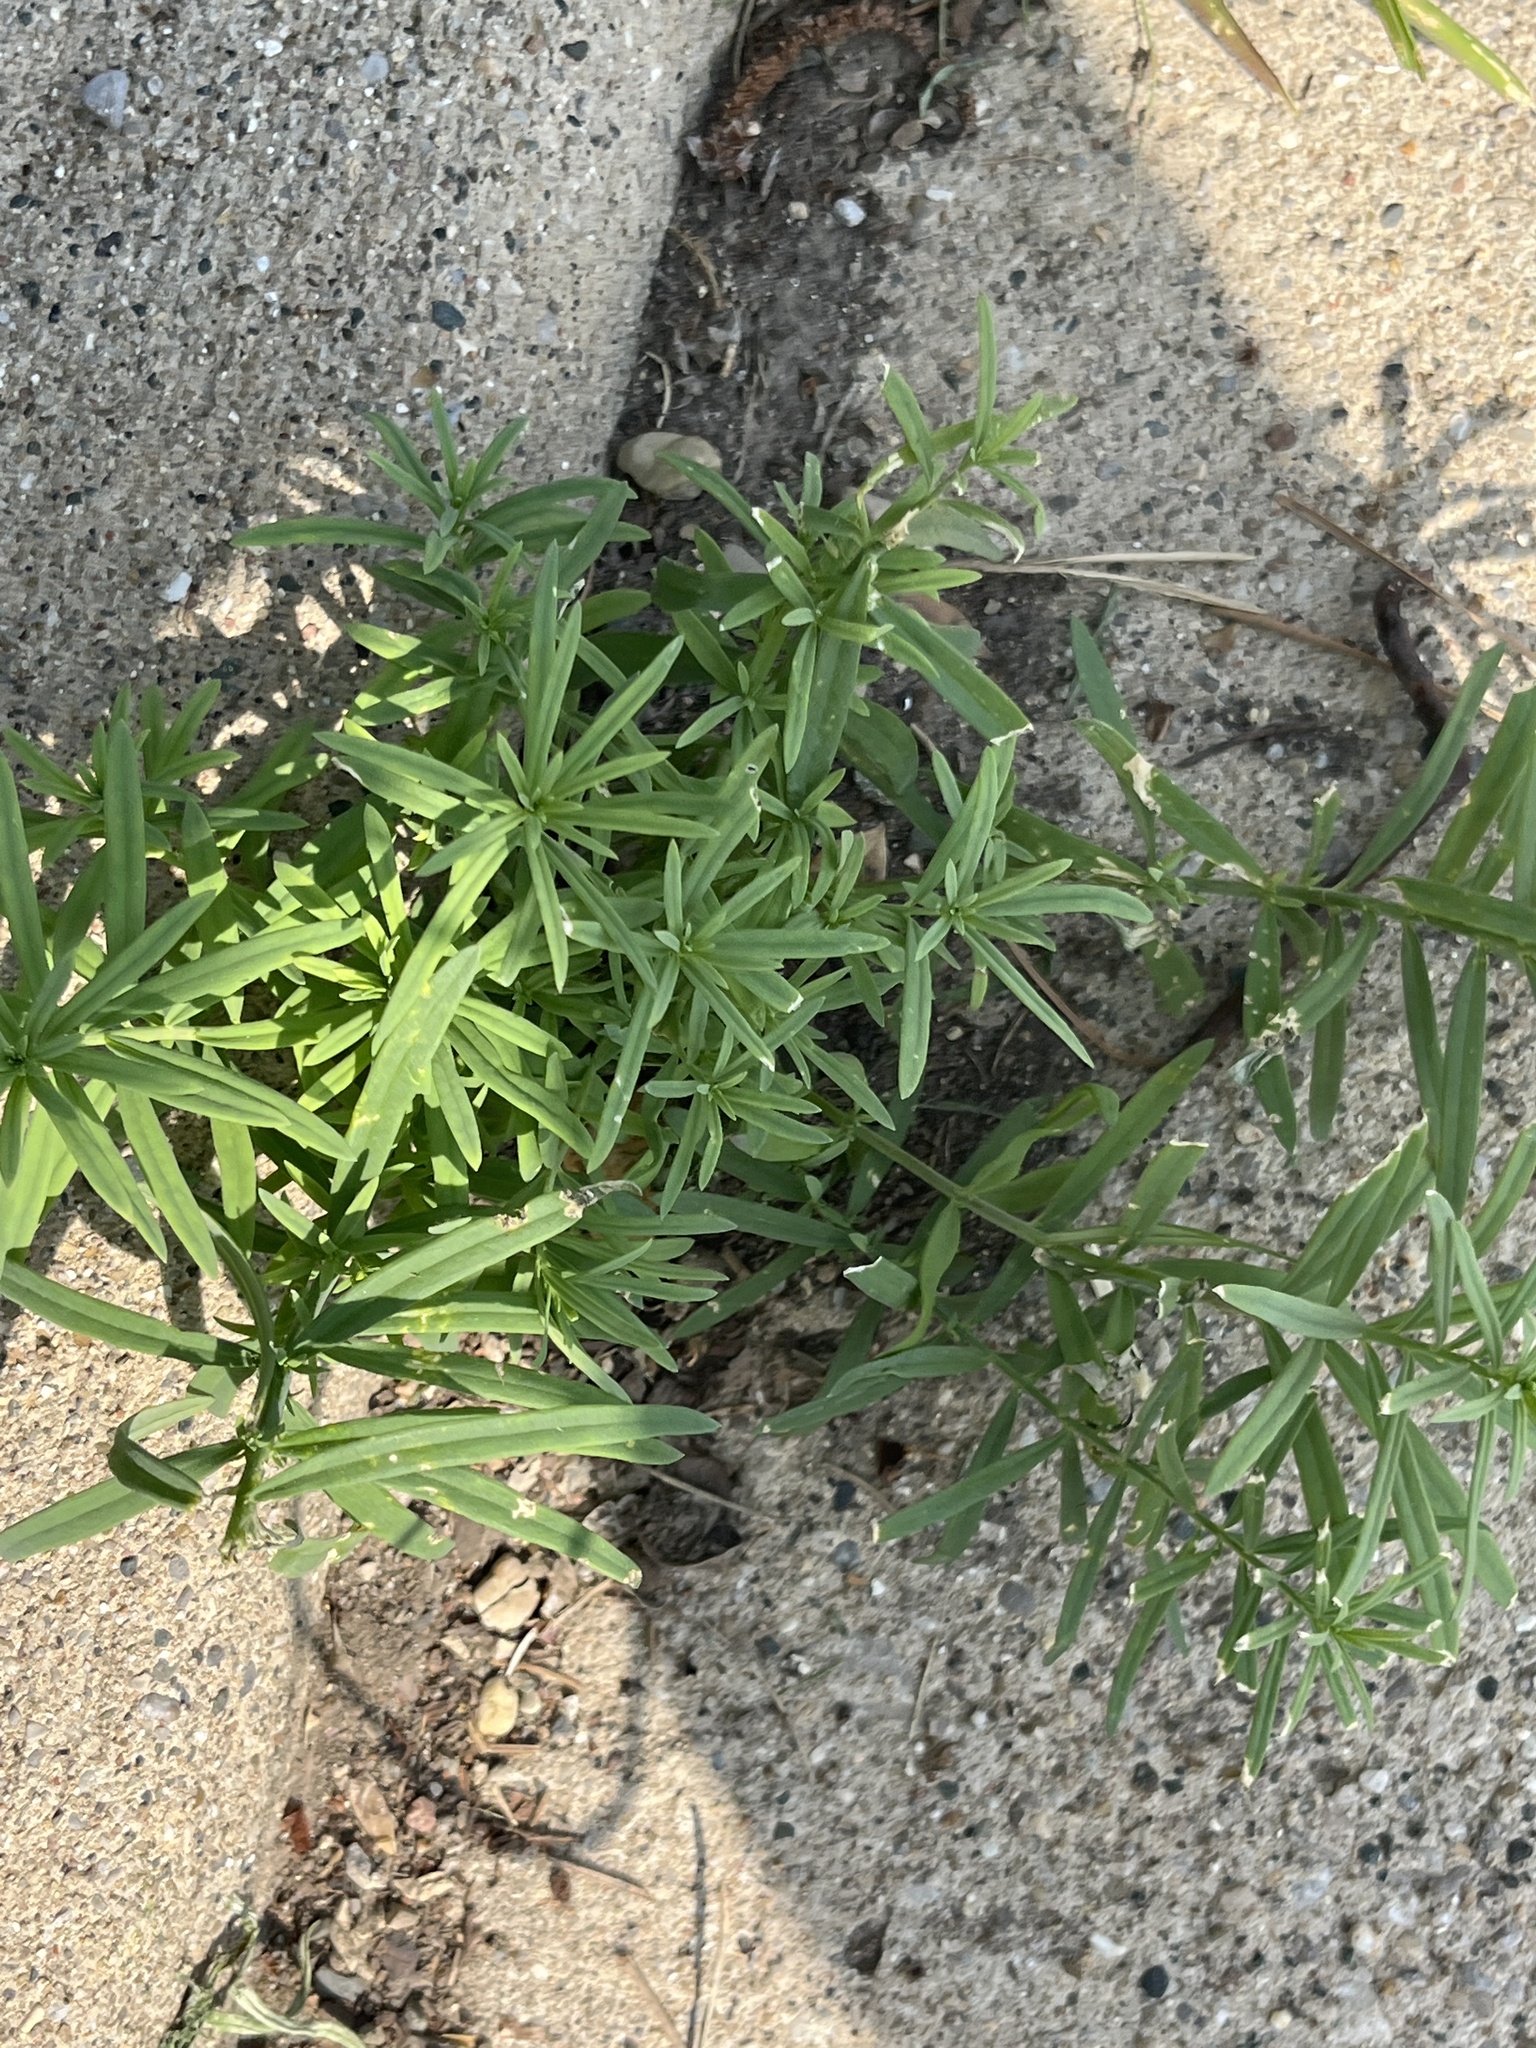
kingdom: Plantae
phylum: Tracheophyta
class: Magnoliopsida
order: Lamiales
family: Plantaginaceae
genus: Linaria
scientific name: Linaria vulgaris
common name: Butter and eggs
